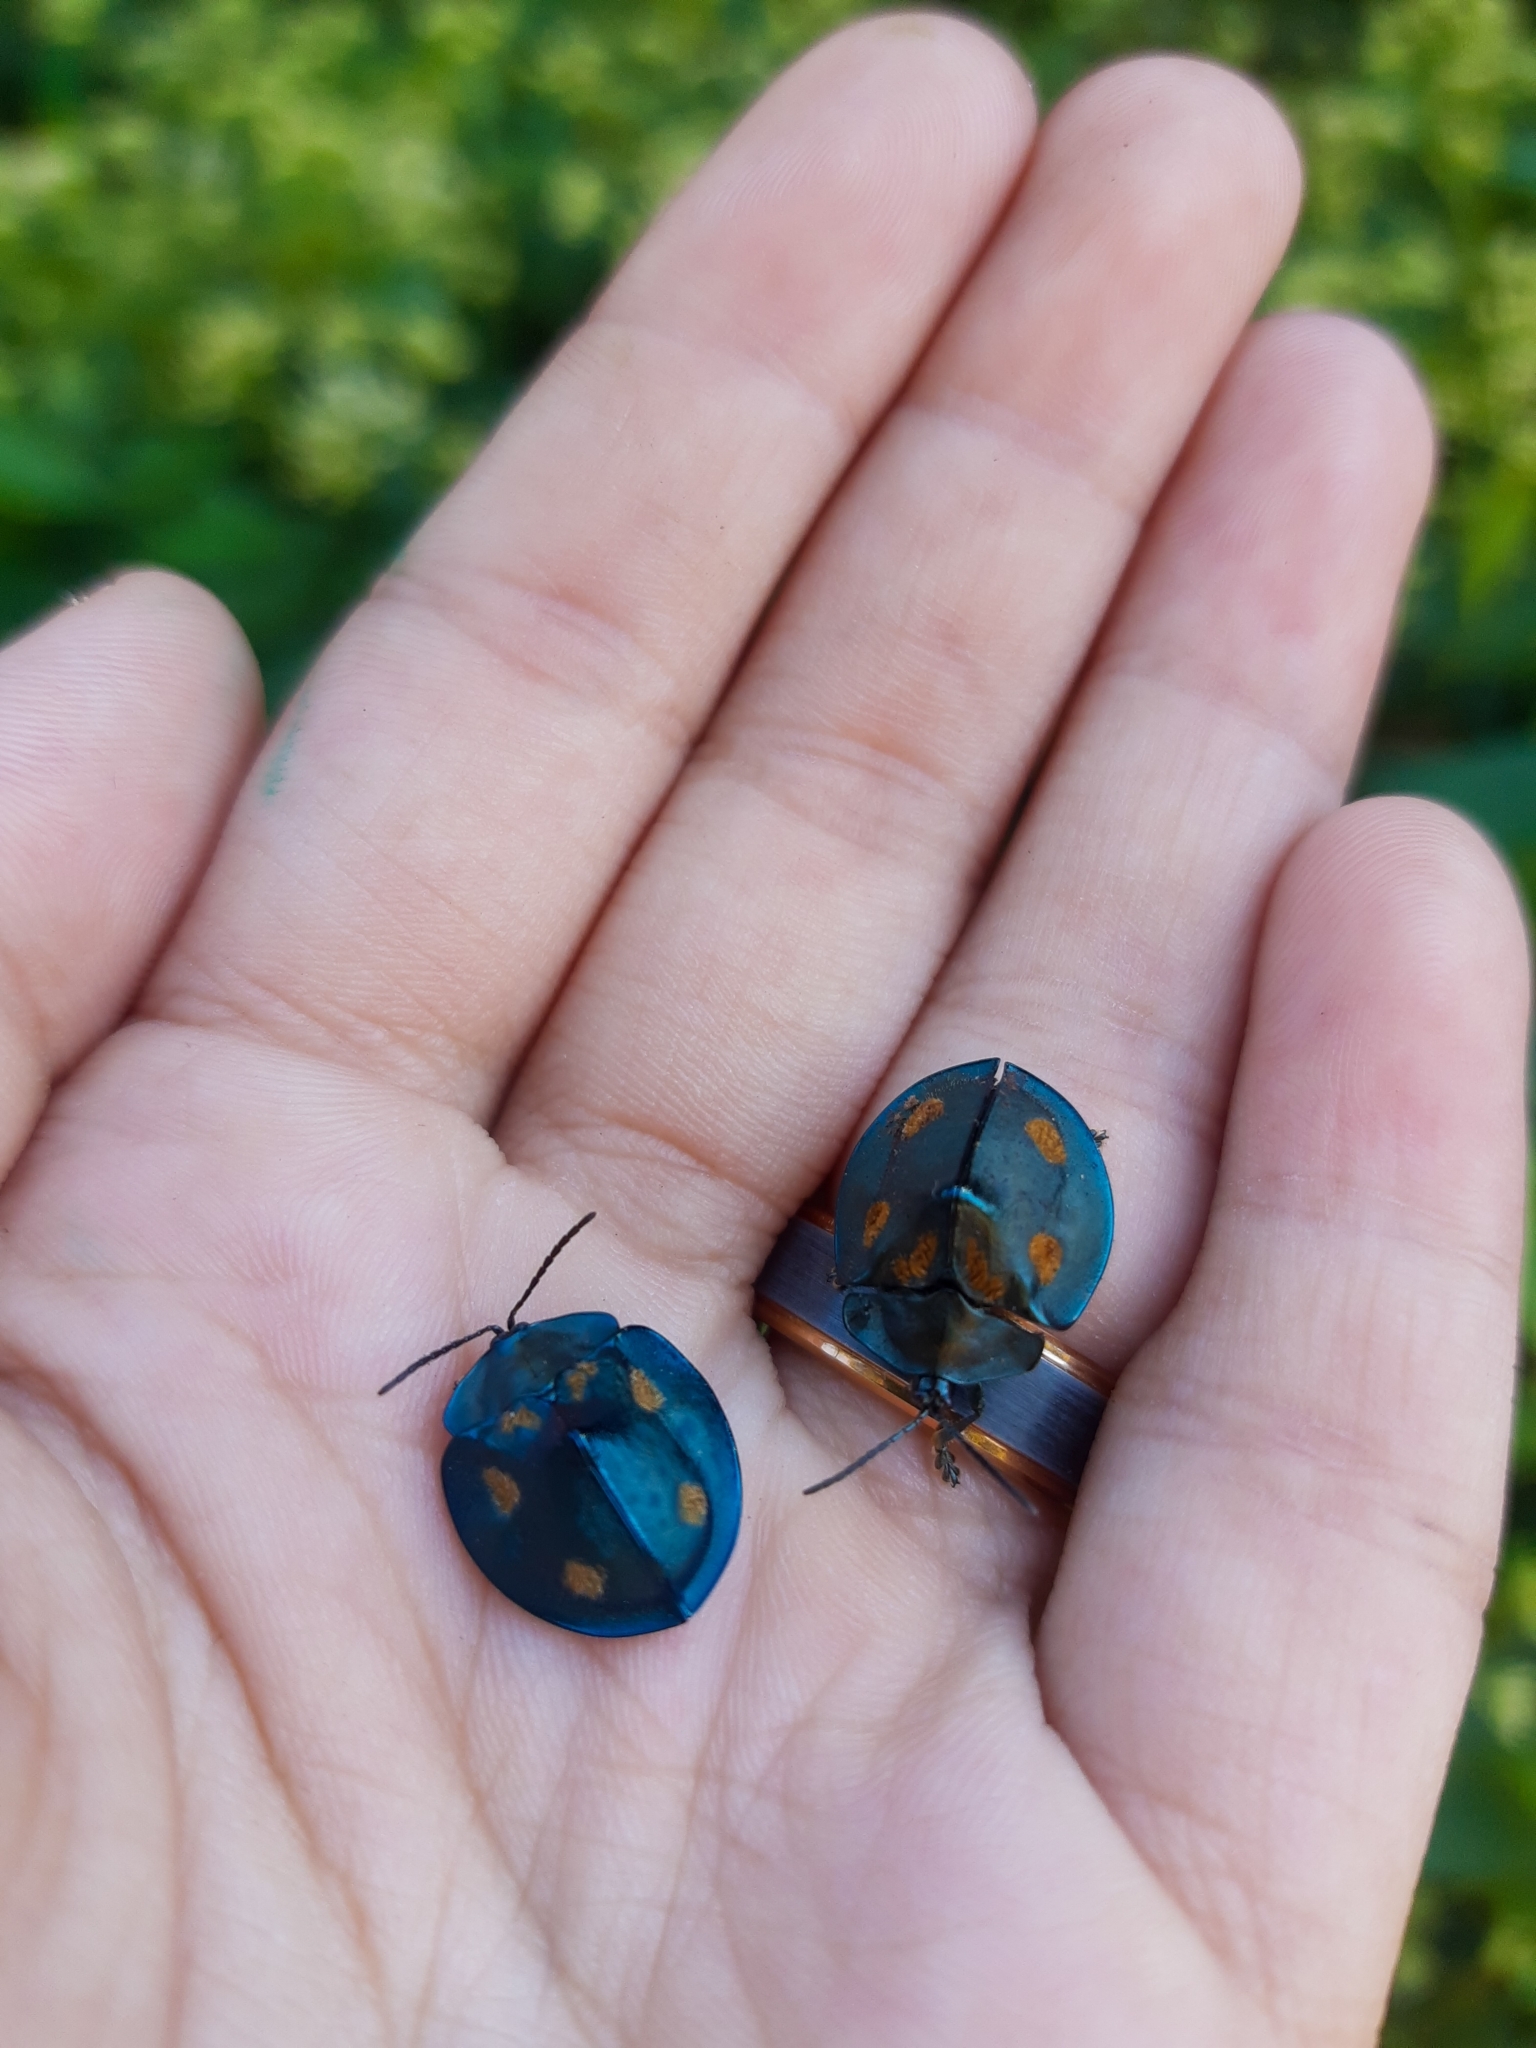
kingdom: Animalia
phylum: Arthropoda
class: Insecta
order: Coleoptera
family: Chrysomelidae
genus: Stolas
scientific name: Stolas conspersa
